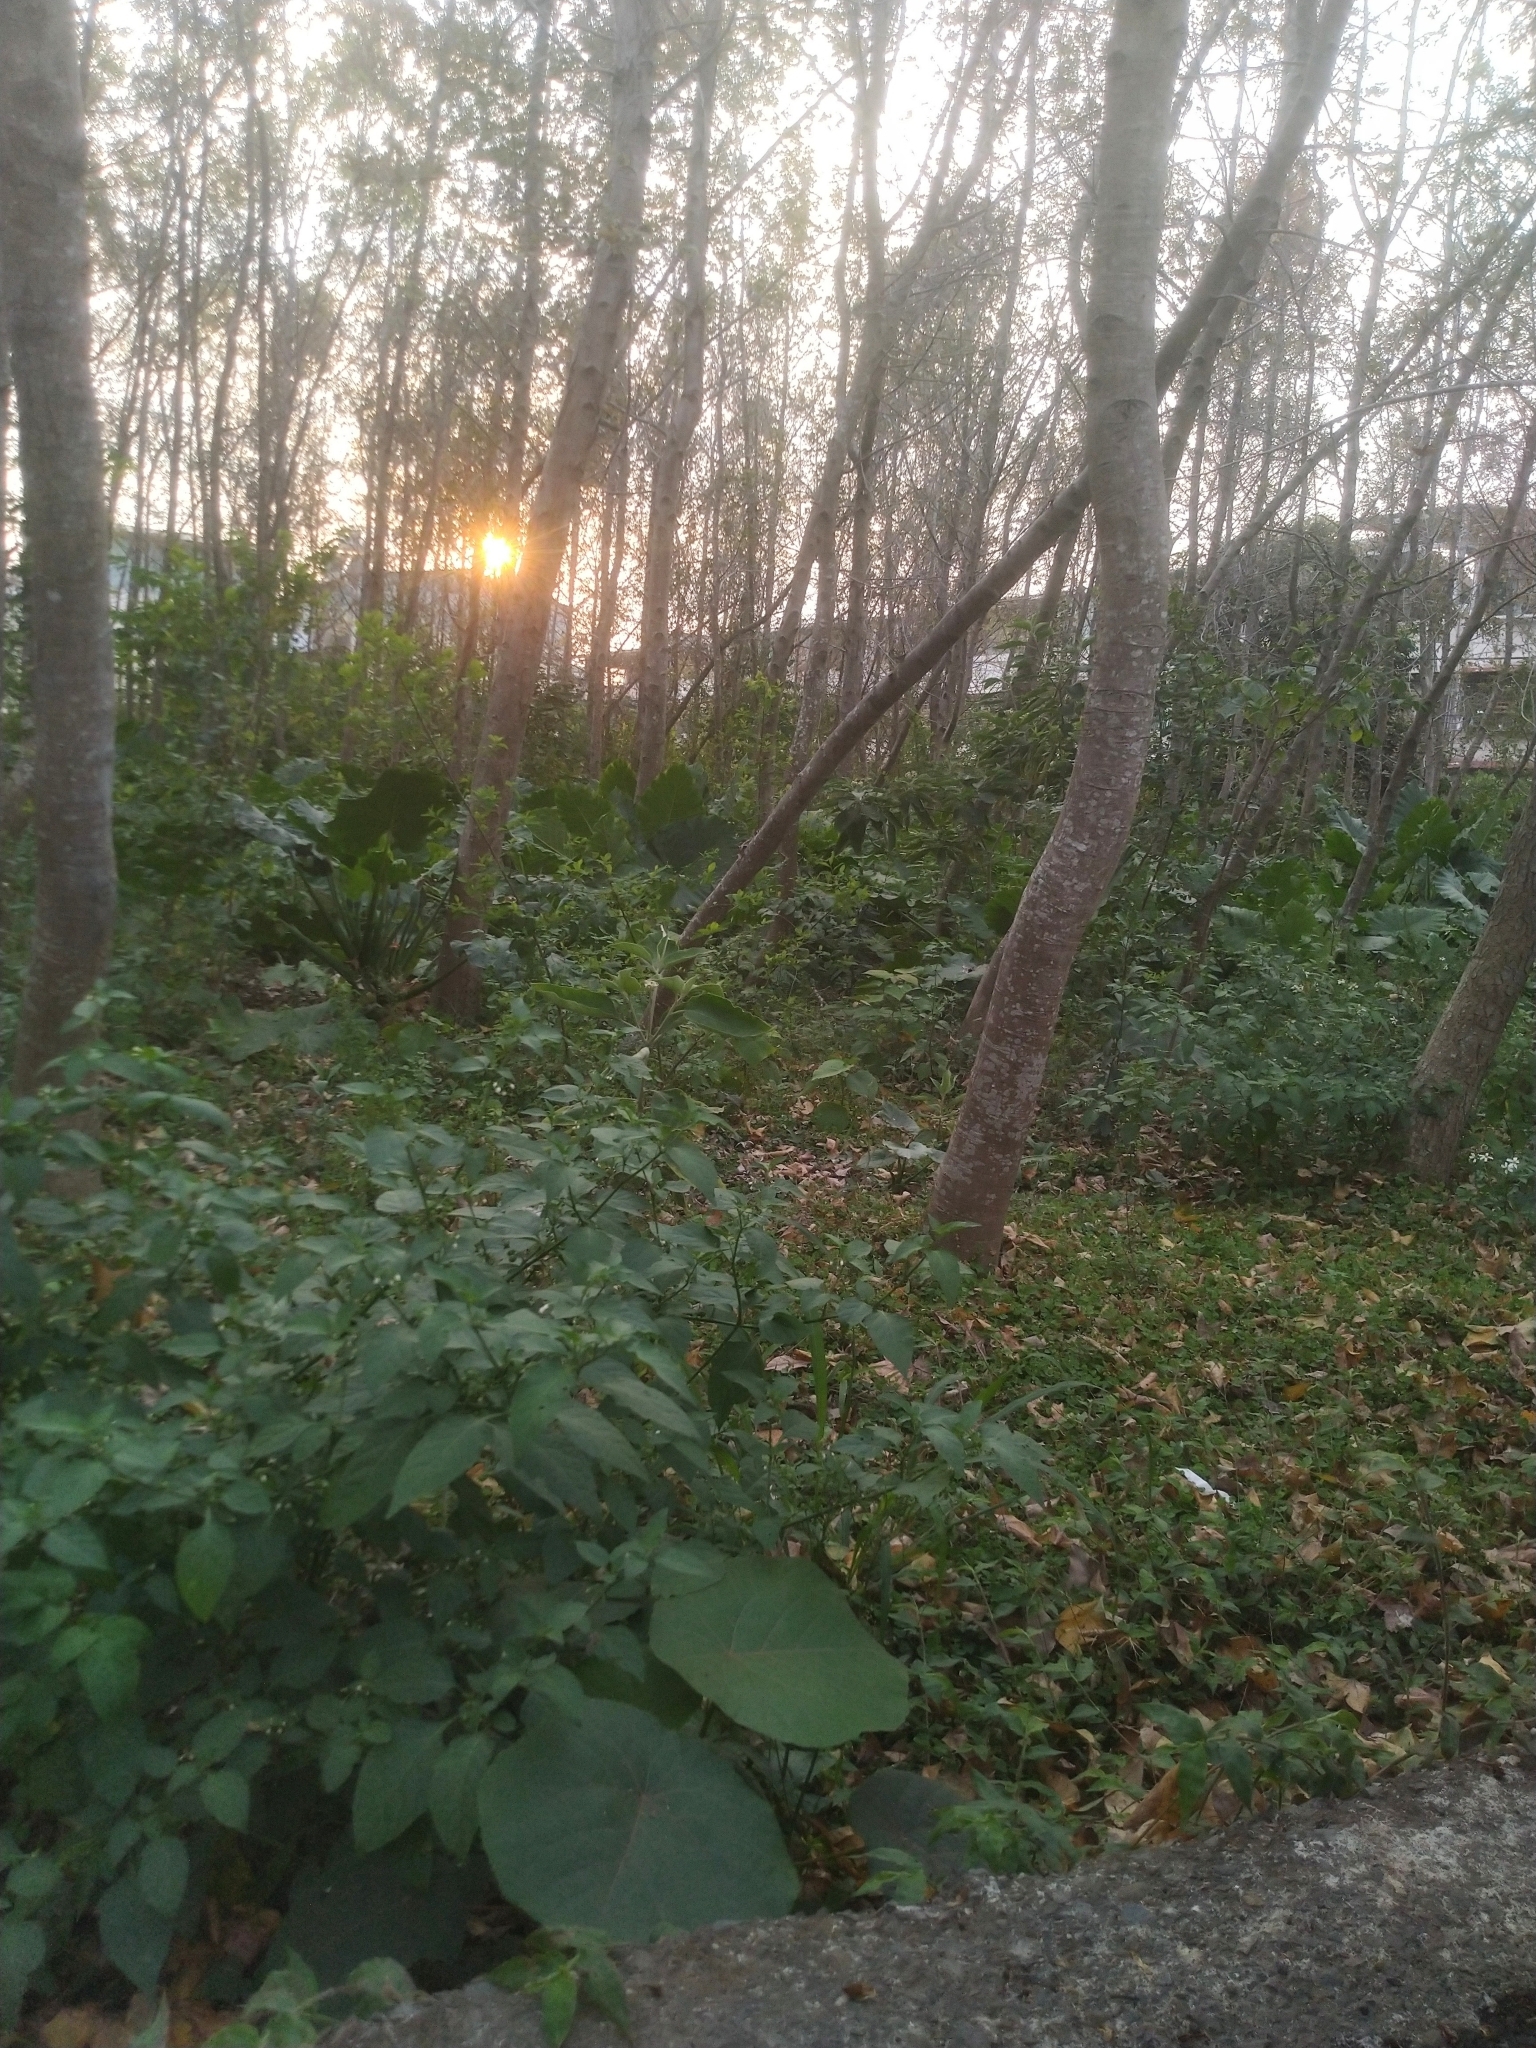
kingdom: Plantae
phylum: Tracheophyta
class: Magnoliopsida
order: Malpighiales
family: Euphorbiaceae
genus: Macaranga
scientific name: Macaranga tanarius
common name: Parasol leaf tree
